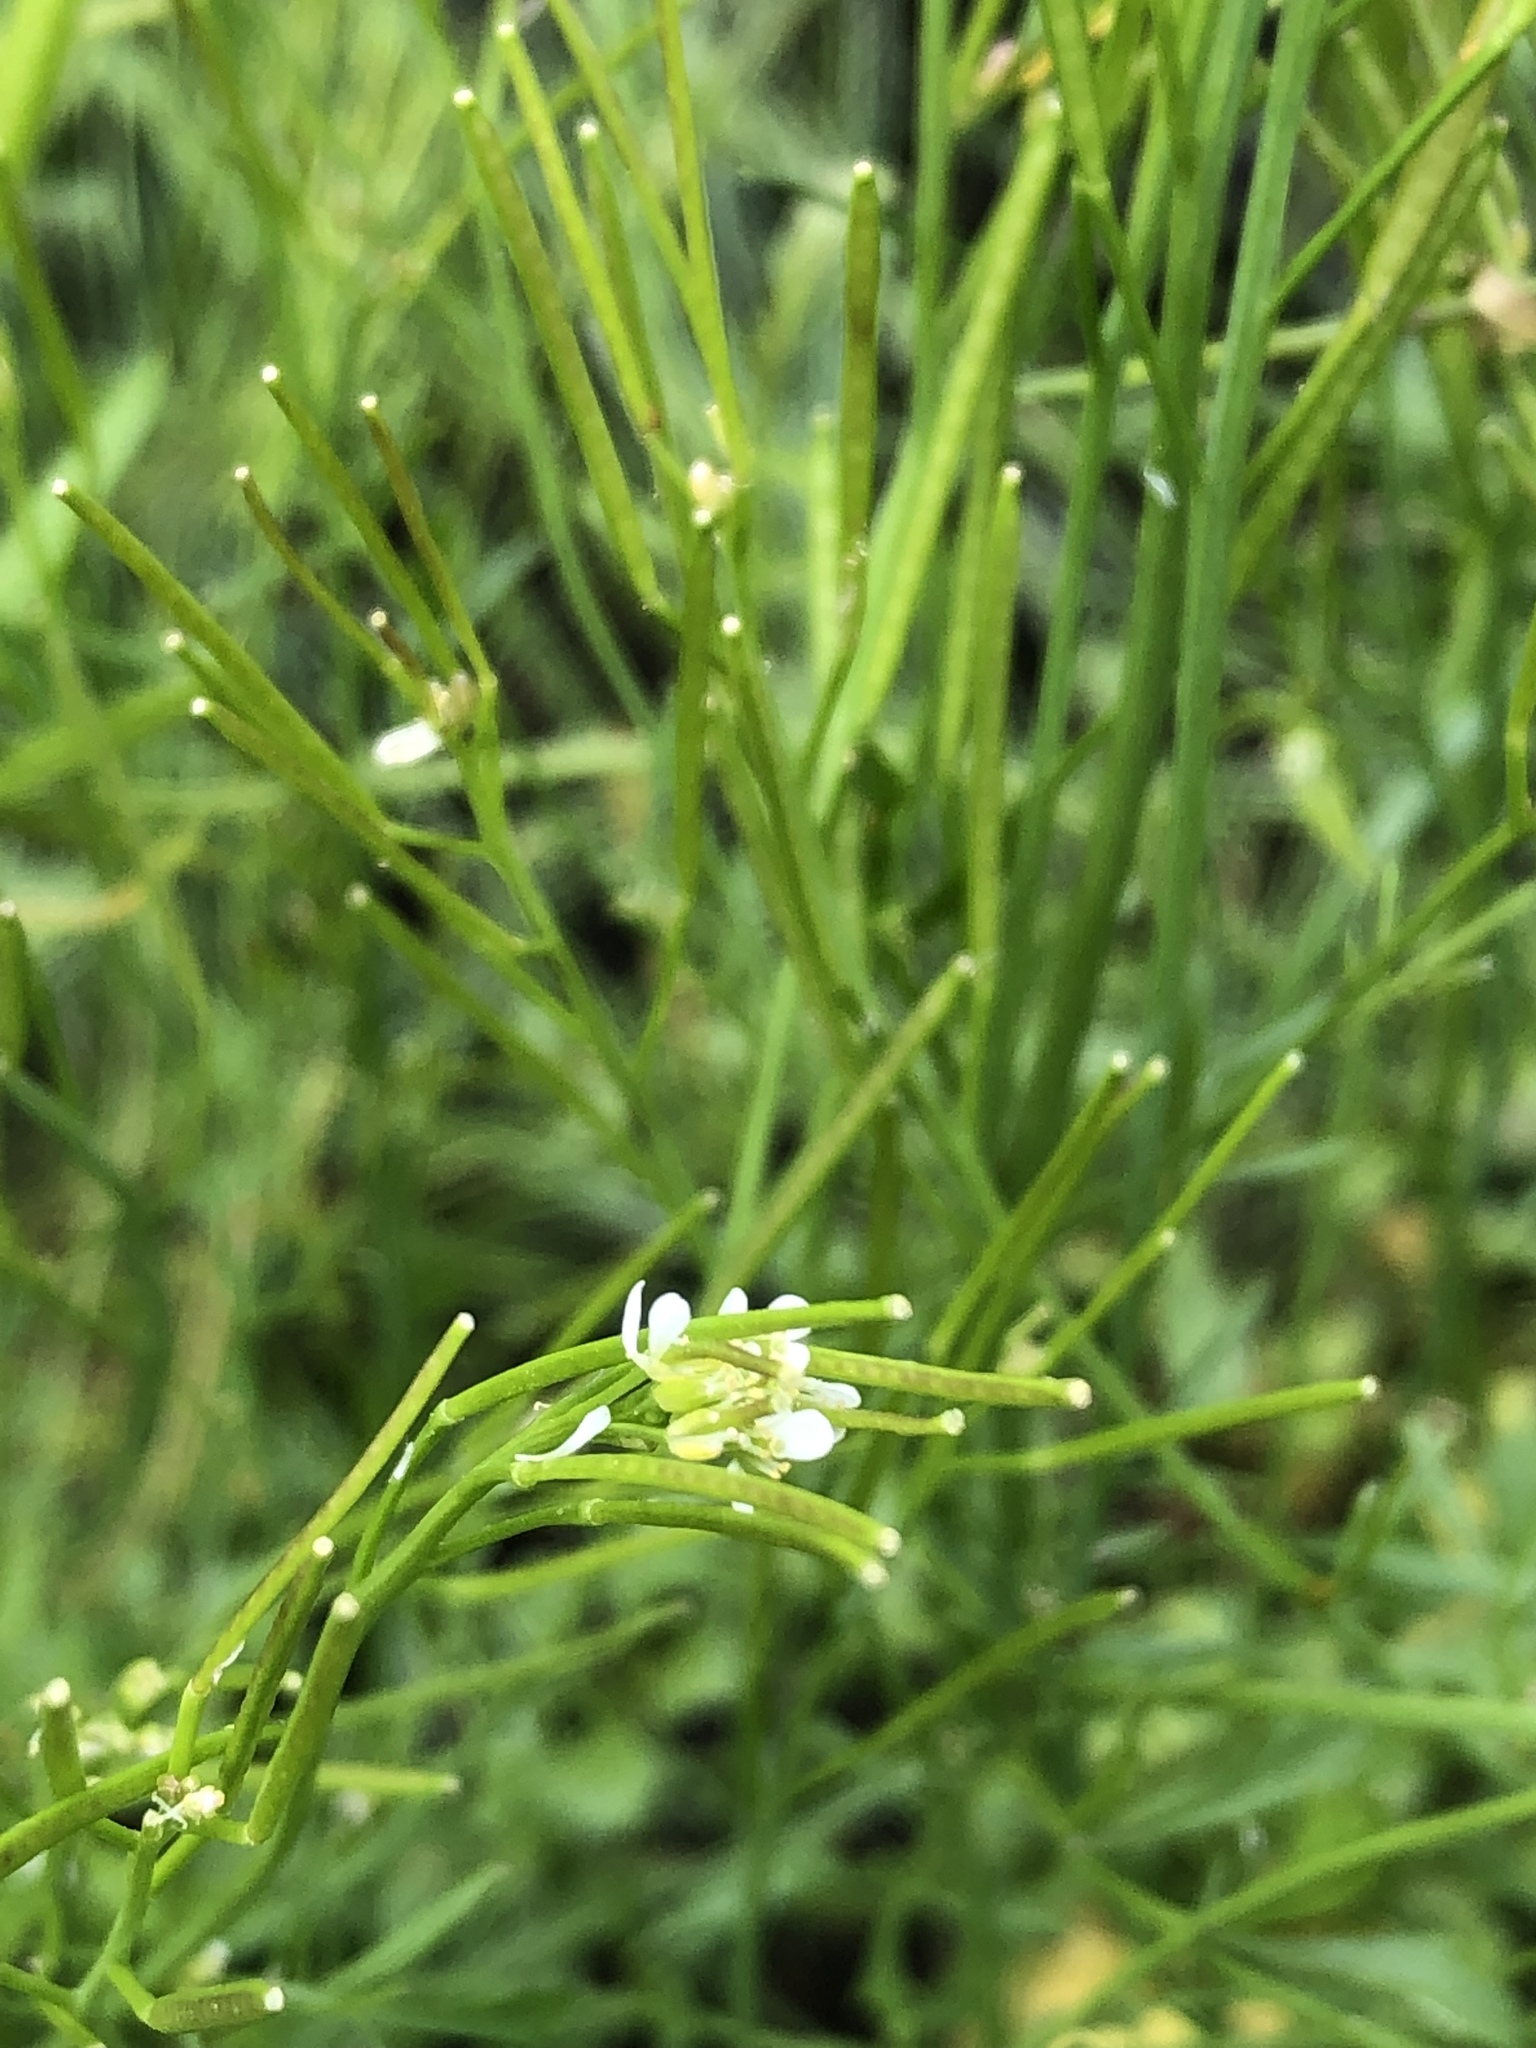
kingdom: Plantae
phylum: Tracheophyta
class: Magnoliopsida
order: Brassicales
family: Brassicaceae
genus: Cardamine
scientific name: Cardamine hirsuta
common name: Hairy bittercress
